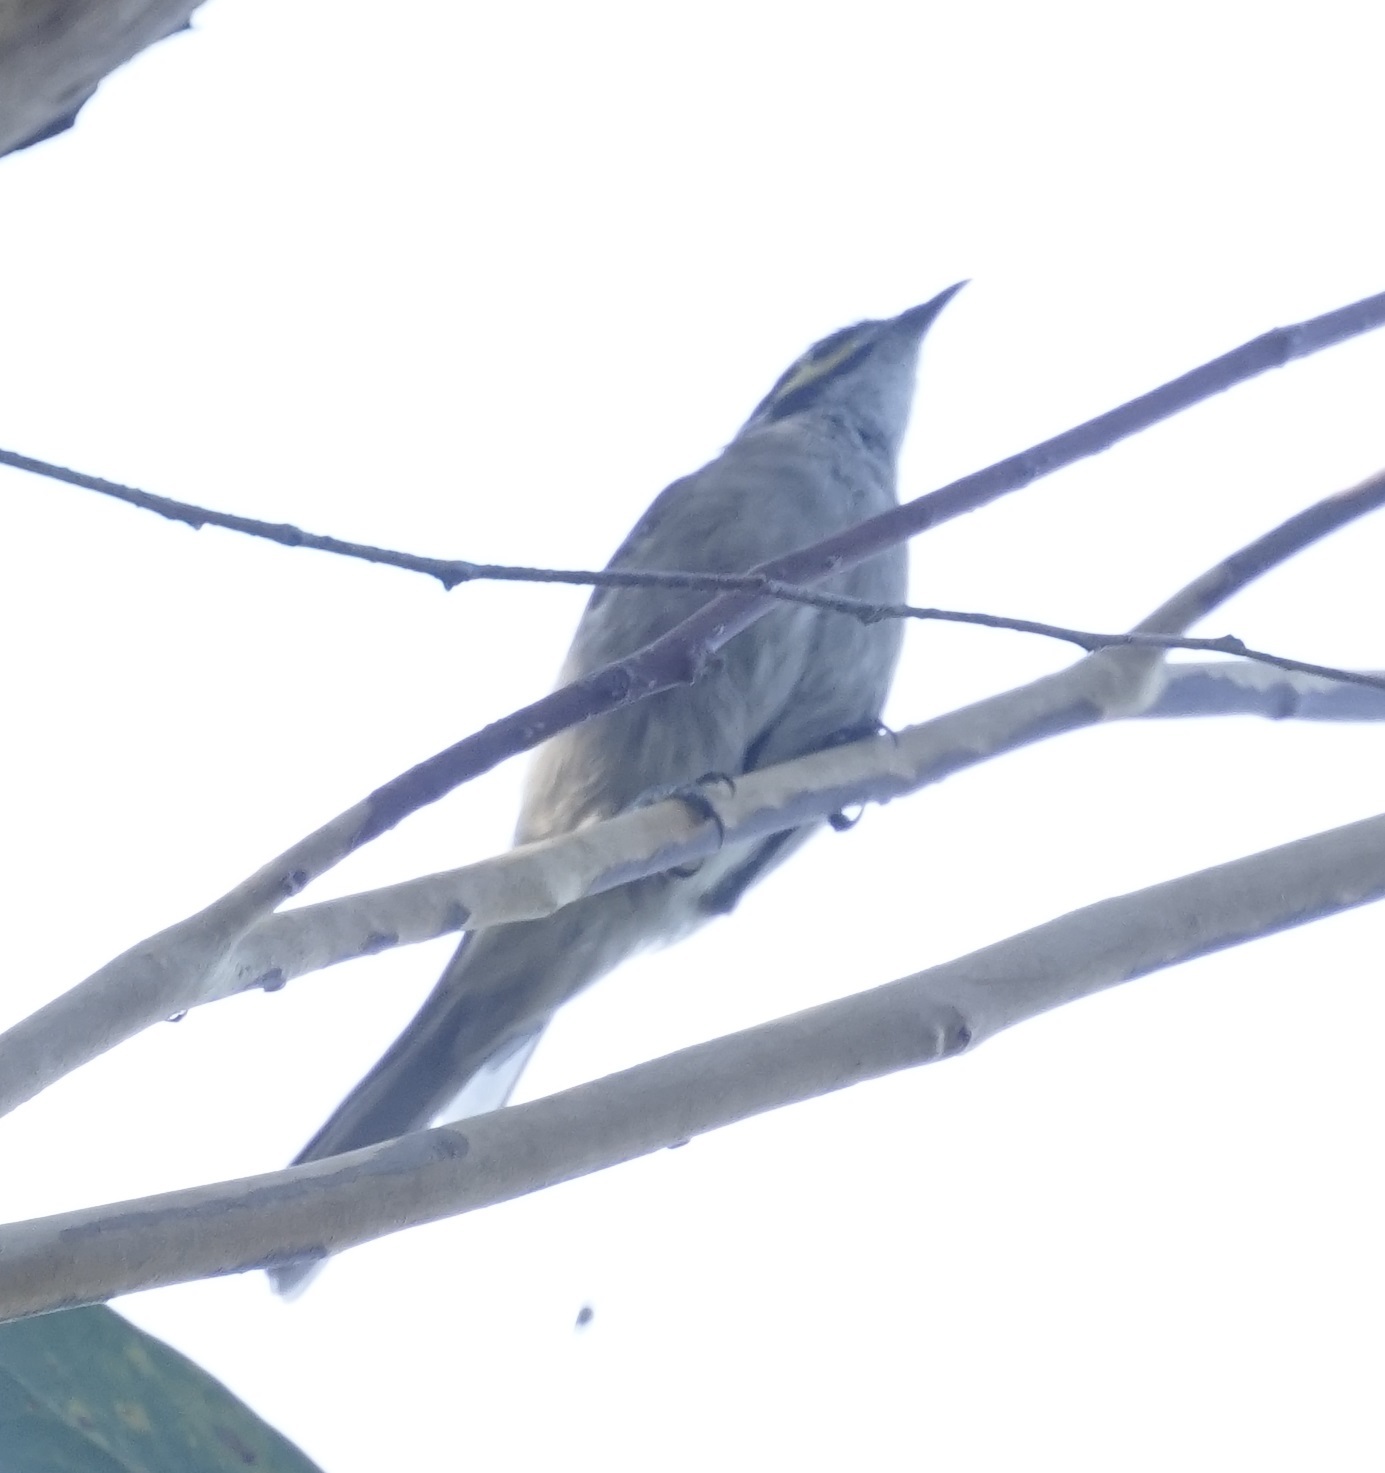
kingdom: Animalia
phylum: Chordata
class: Aves
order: Passeriformes
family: Meliphagidae
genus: Caligavis
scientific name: Caligavis chrysops
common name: Yellow-faced honeyeater
